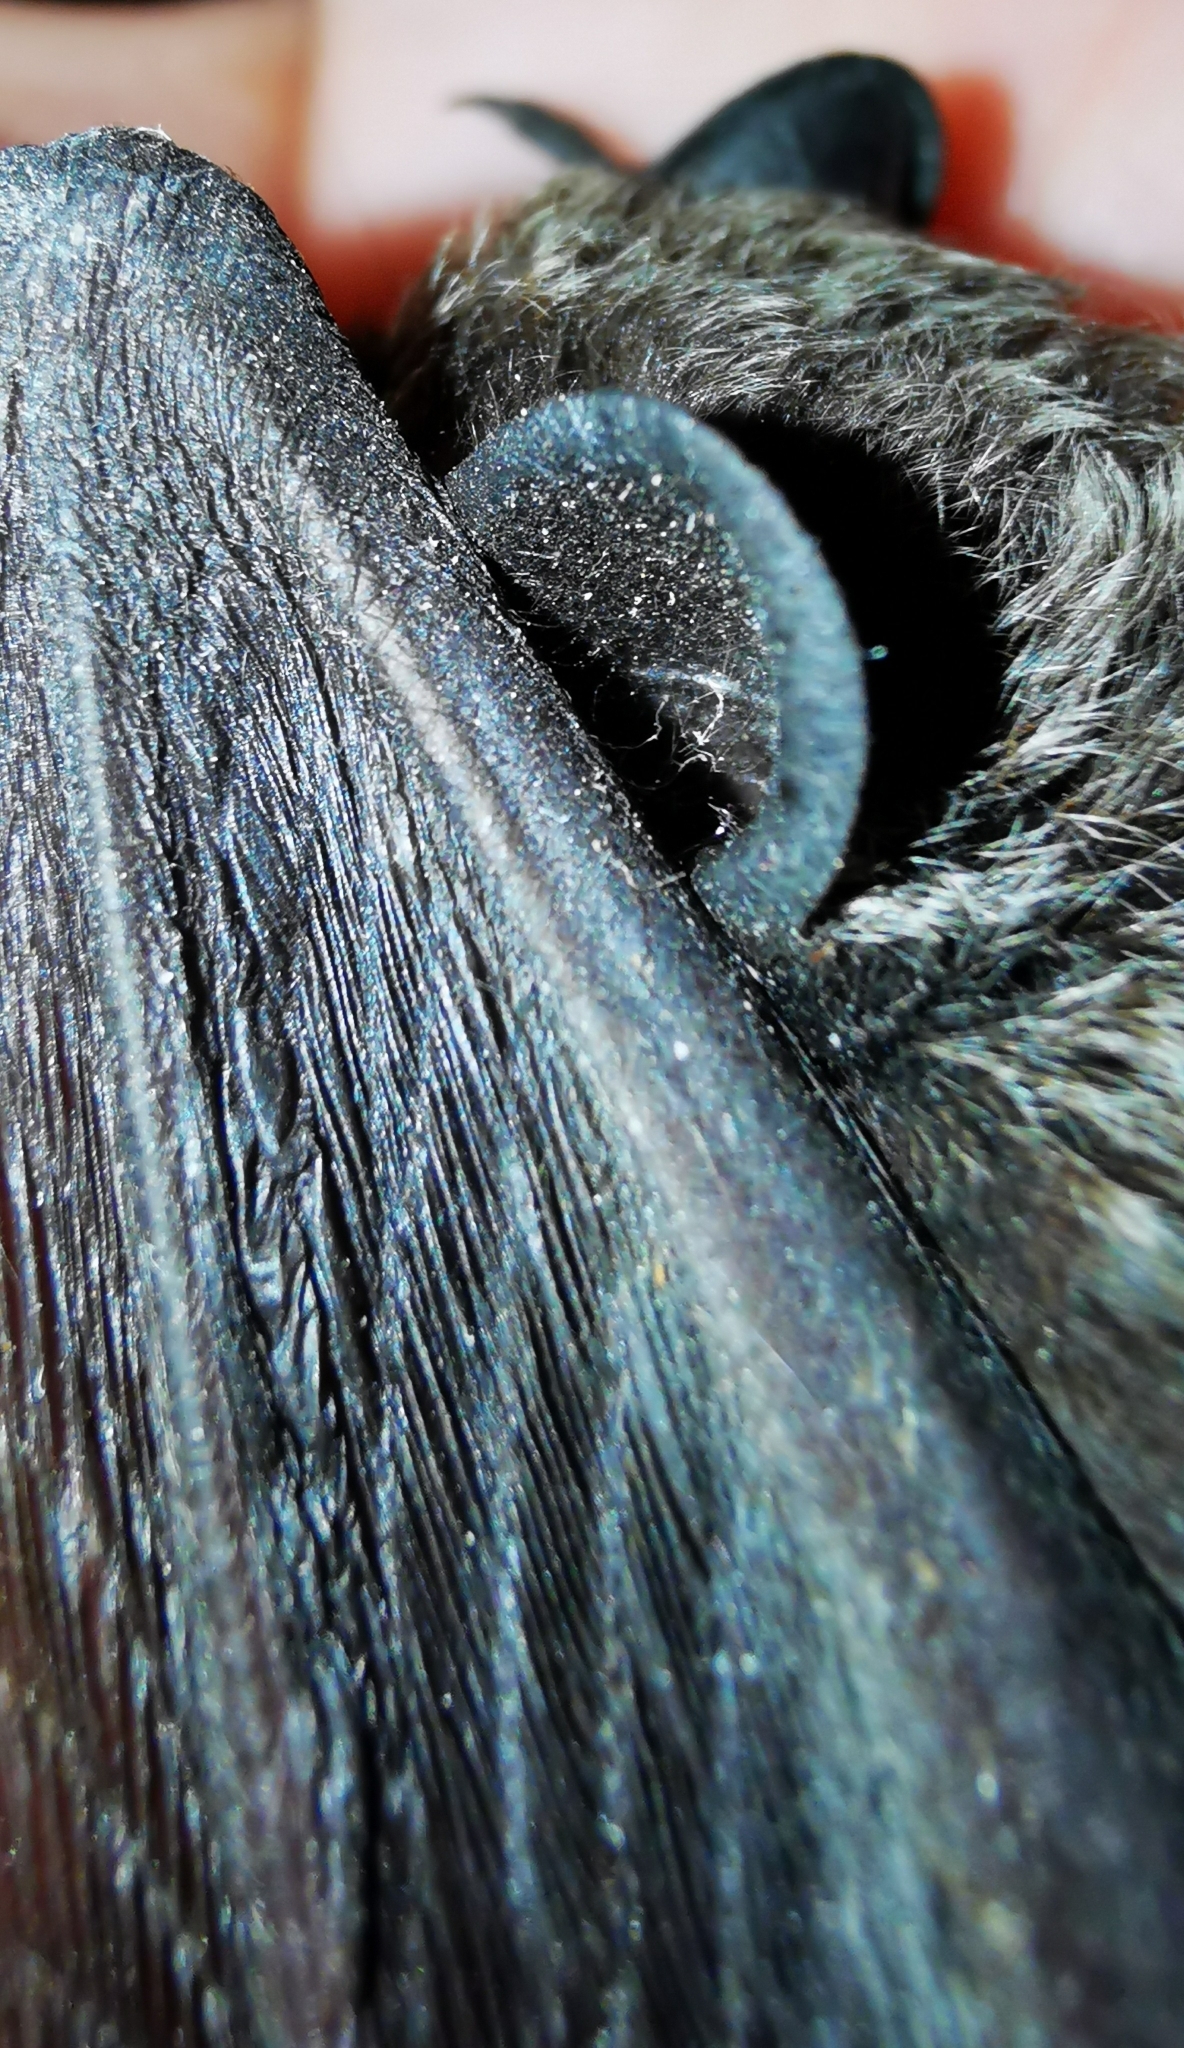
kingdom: Animalia
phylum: Chordata
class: Mammalia
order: Chiroptera
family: Vespertilionidae
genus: Vespertilio
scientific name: Vespertilio murinus
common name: Particolored bat
